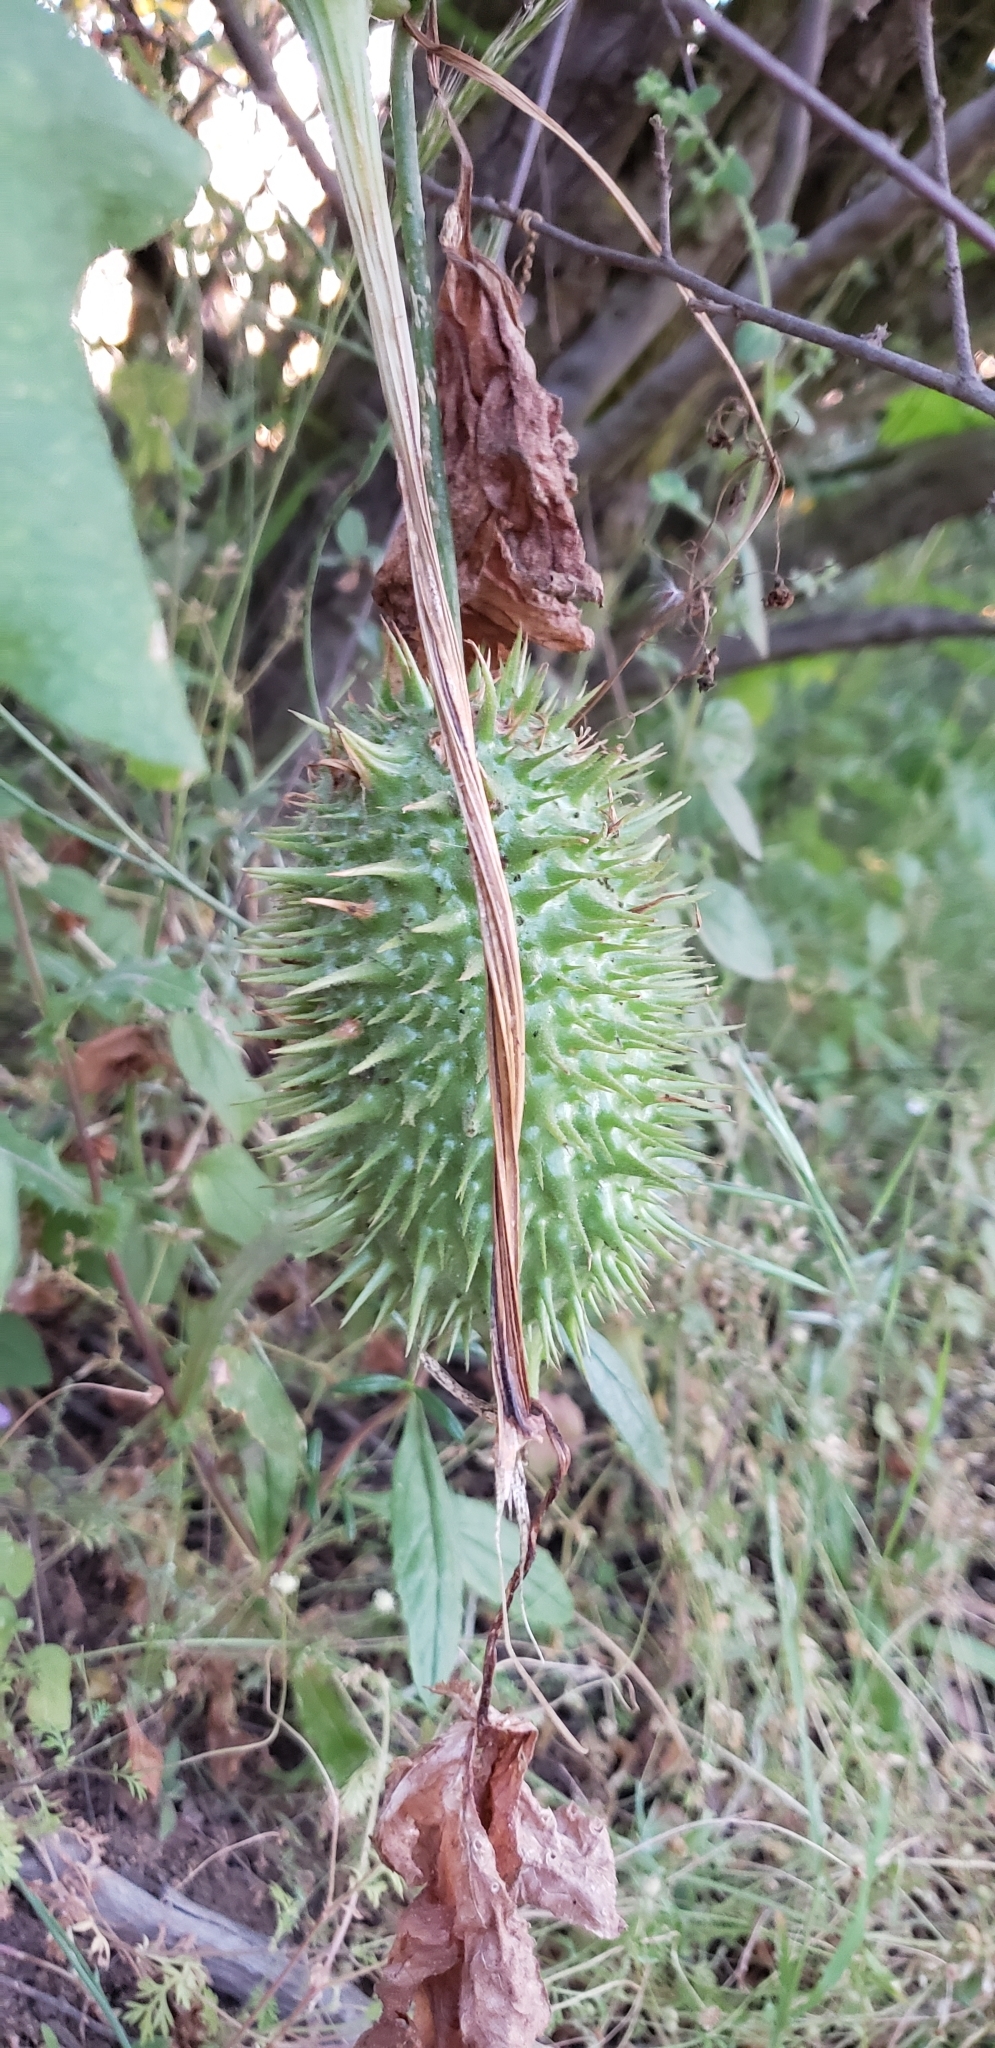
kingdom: Plantae
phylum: Tracheophyta
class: Magnoliopsida
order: Cucurbitales
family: Cucurbitaceae
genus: Marah
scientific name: Marah macrocarpa
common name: Cucamonga manroot
